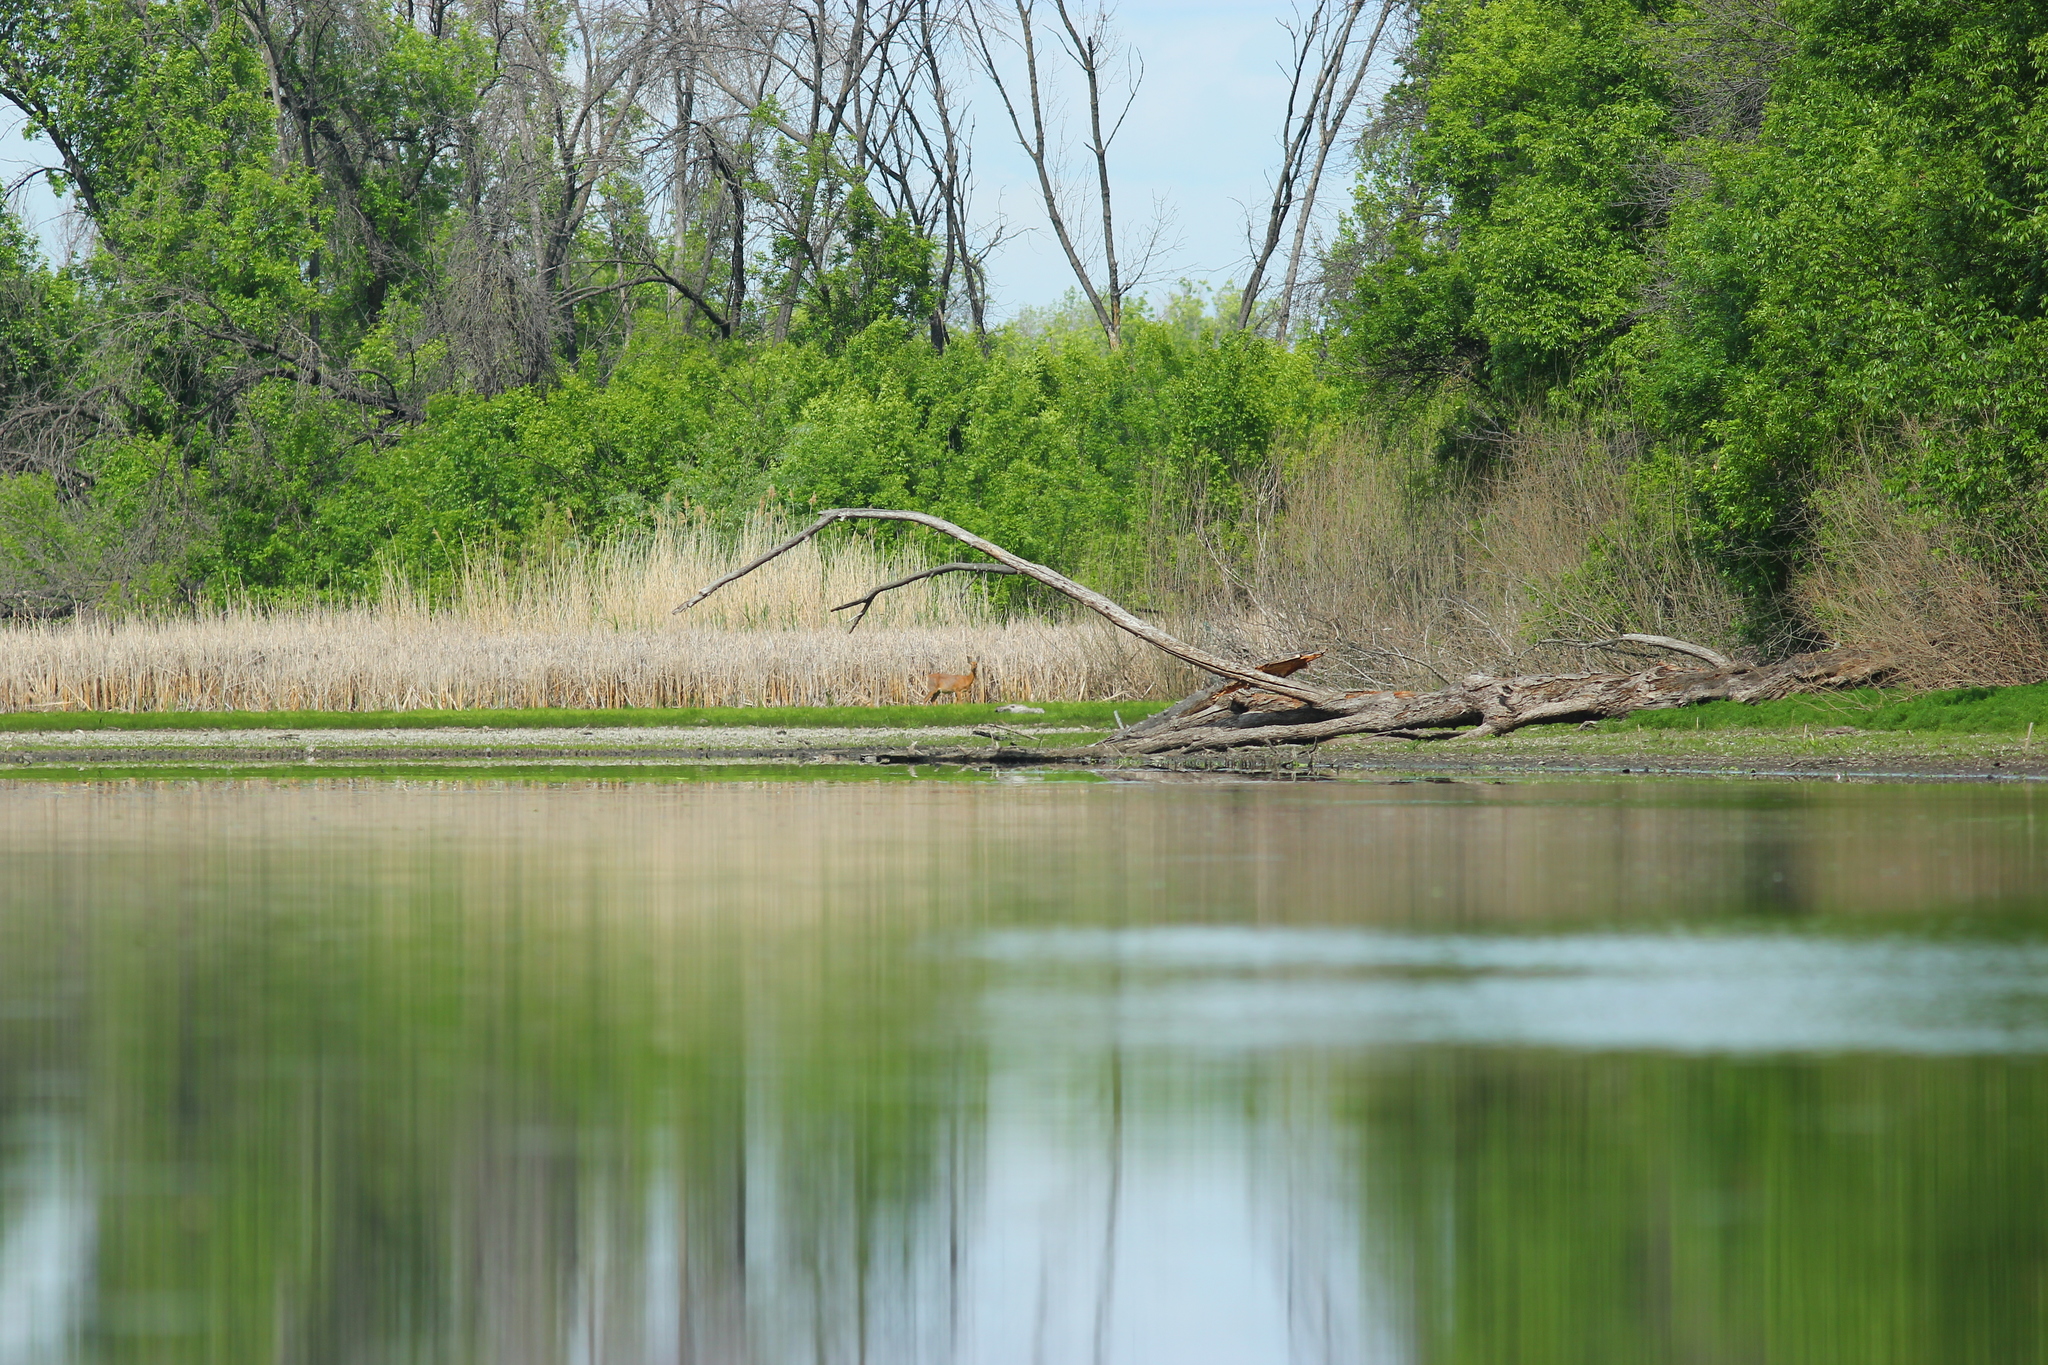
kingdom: Animalia
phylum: Chordata
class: Mammalia
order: Artiodactyla
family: Cervidae
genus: Capreolus
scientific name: Capreolus pygargus
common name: Siberian roe
